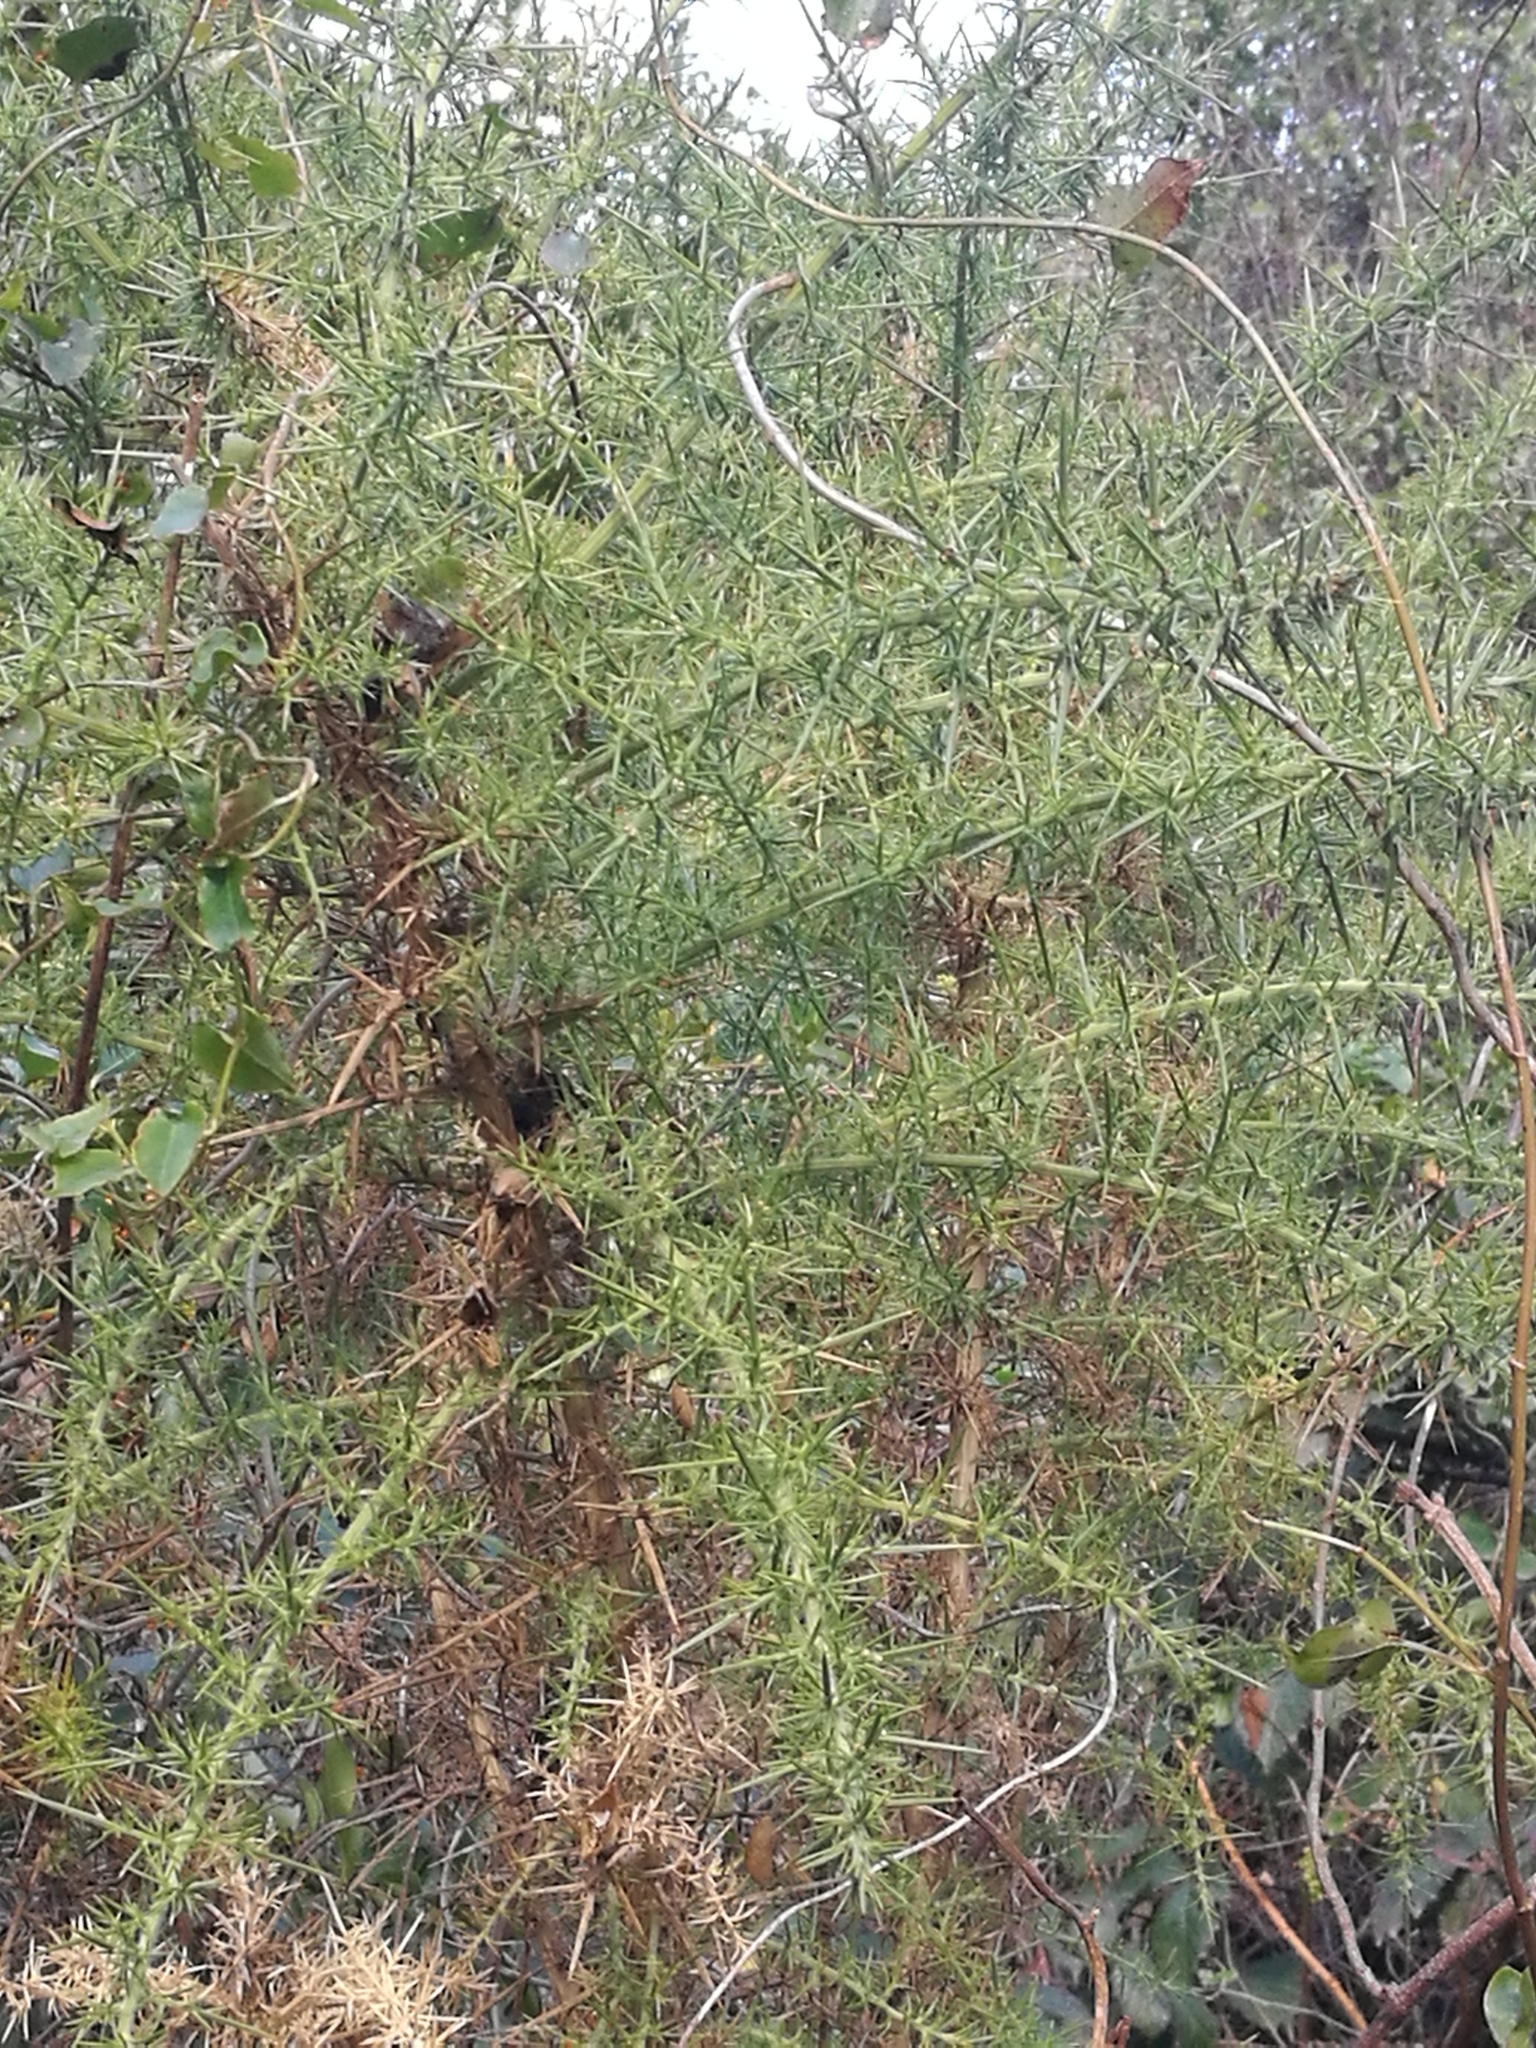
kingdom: Plantae
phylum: Tracheophyta
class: Magnoliopsida
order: Fabales
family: Fabaceae
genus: Ulex
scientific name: Ulex europaeus
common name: Common gorse
